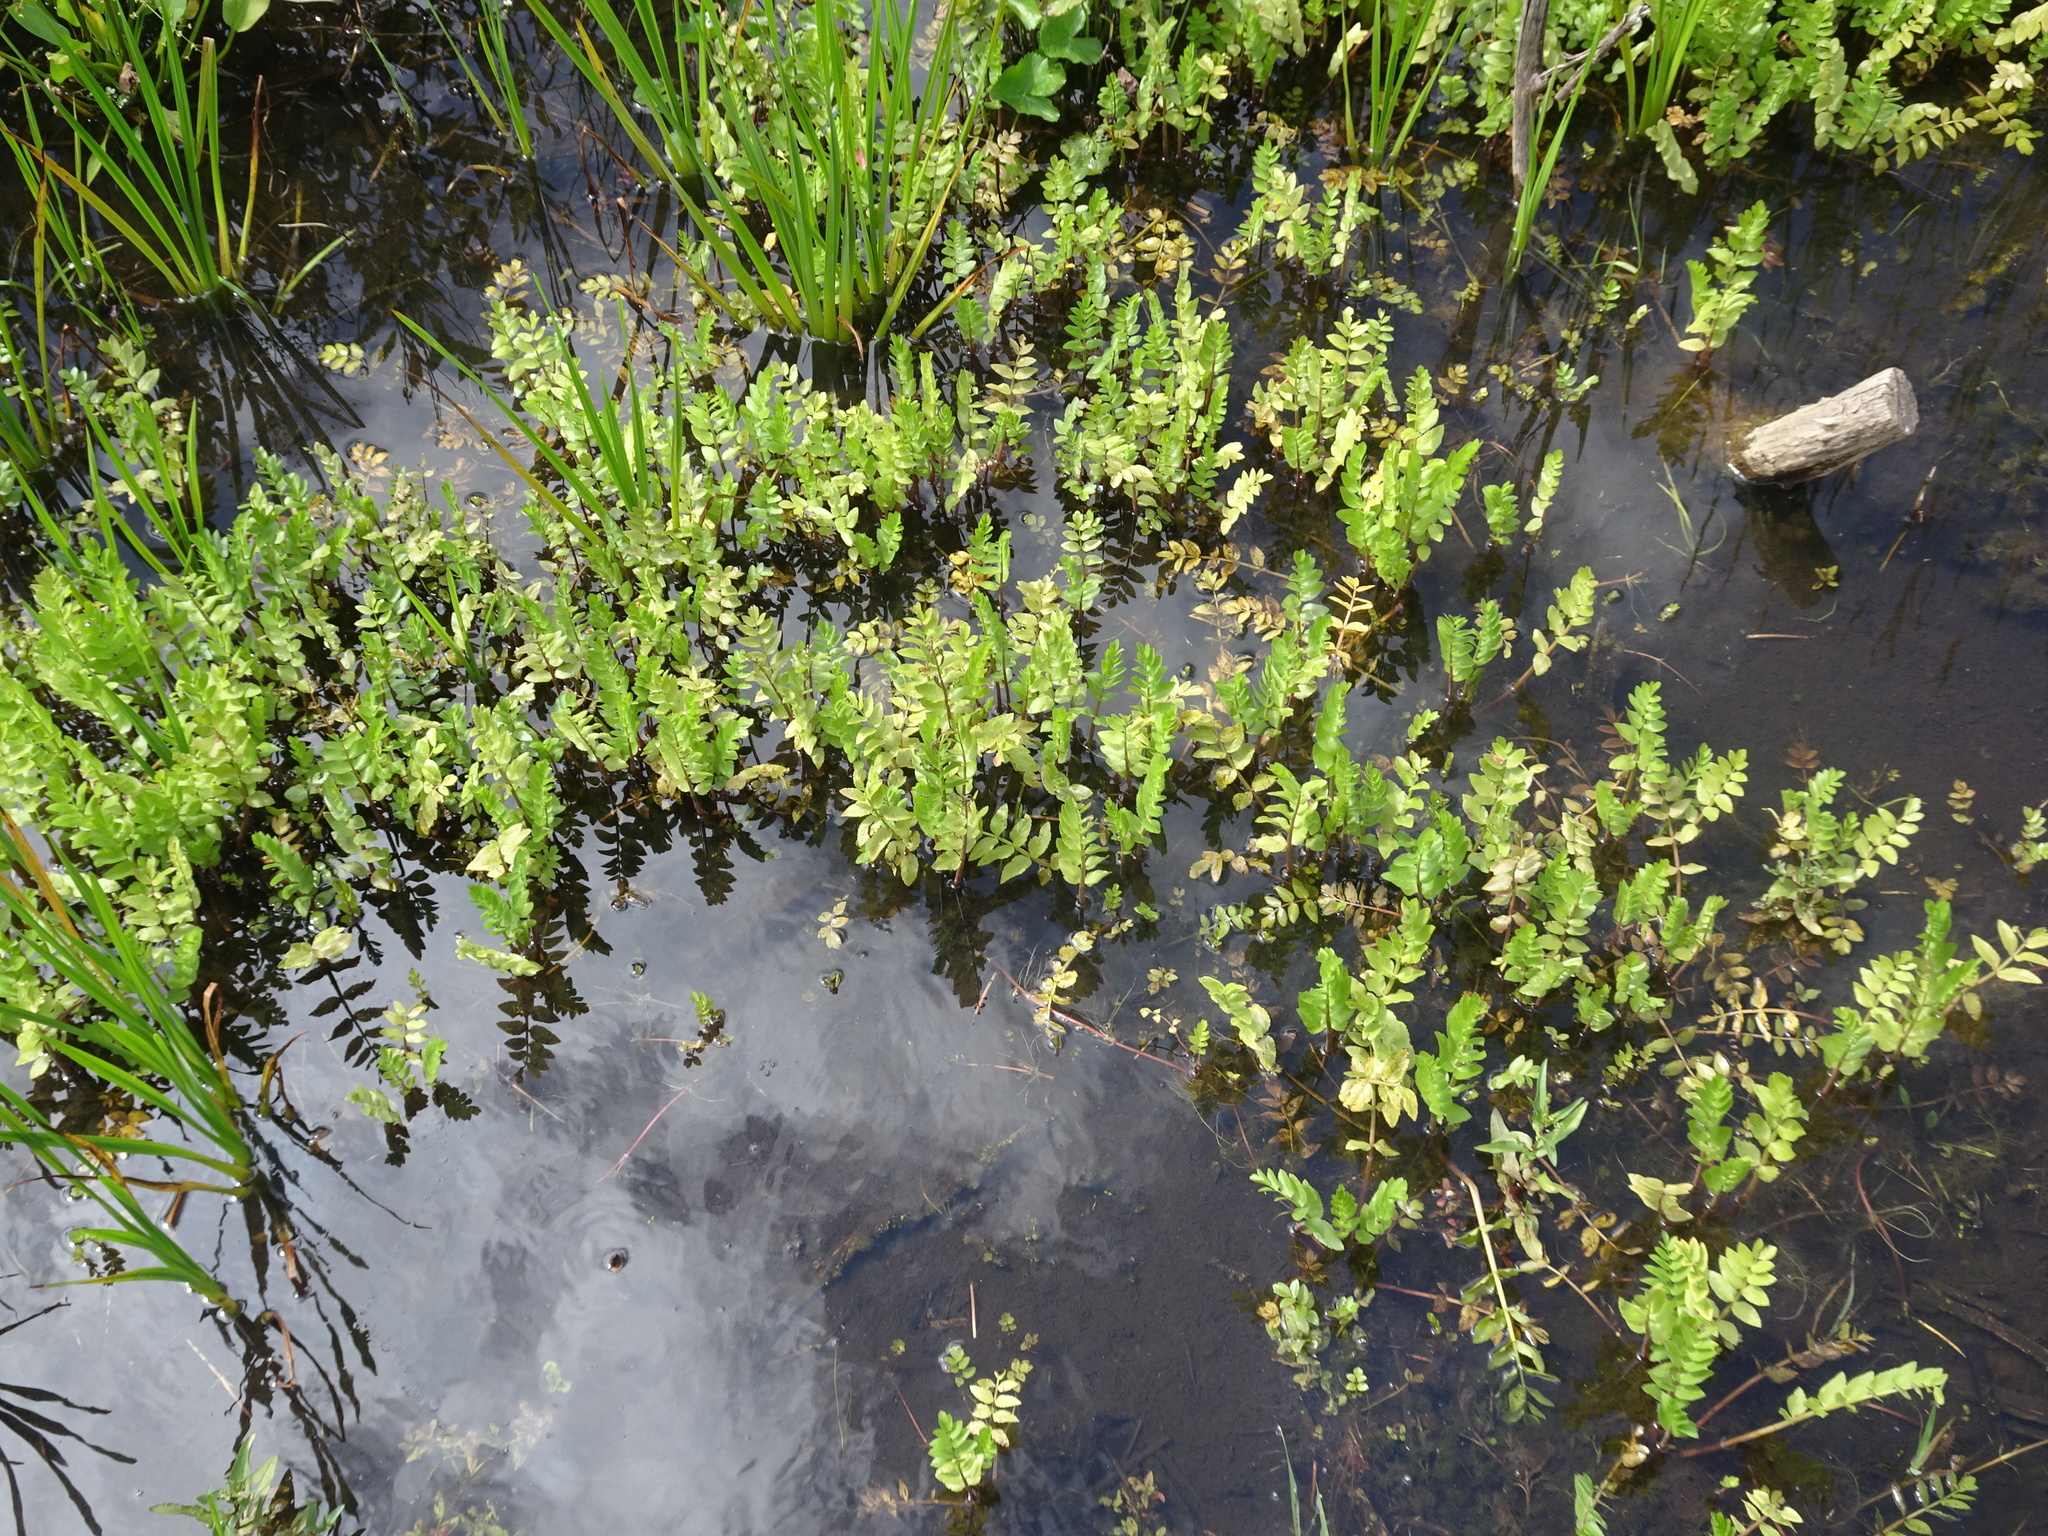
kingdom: Plantae
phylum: Tracheophyta
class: Magnoliopsida
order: Apiales
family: Apiaceae
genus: Berula
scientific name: Berula erecta
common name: Lesser water-parsnip
